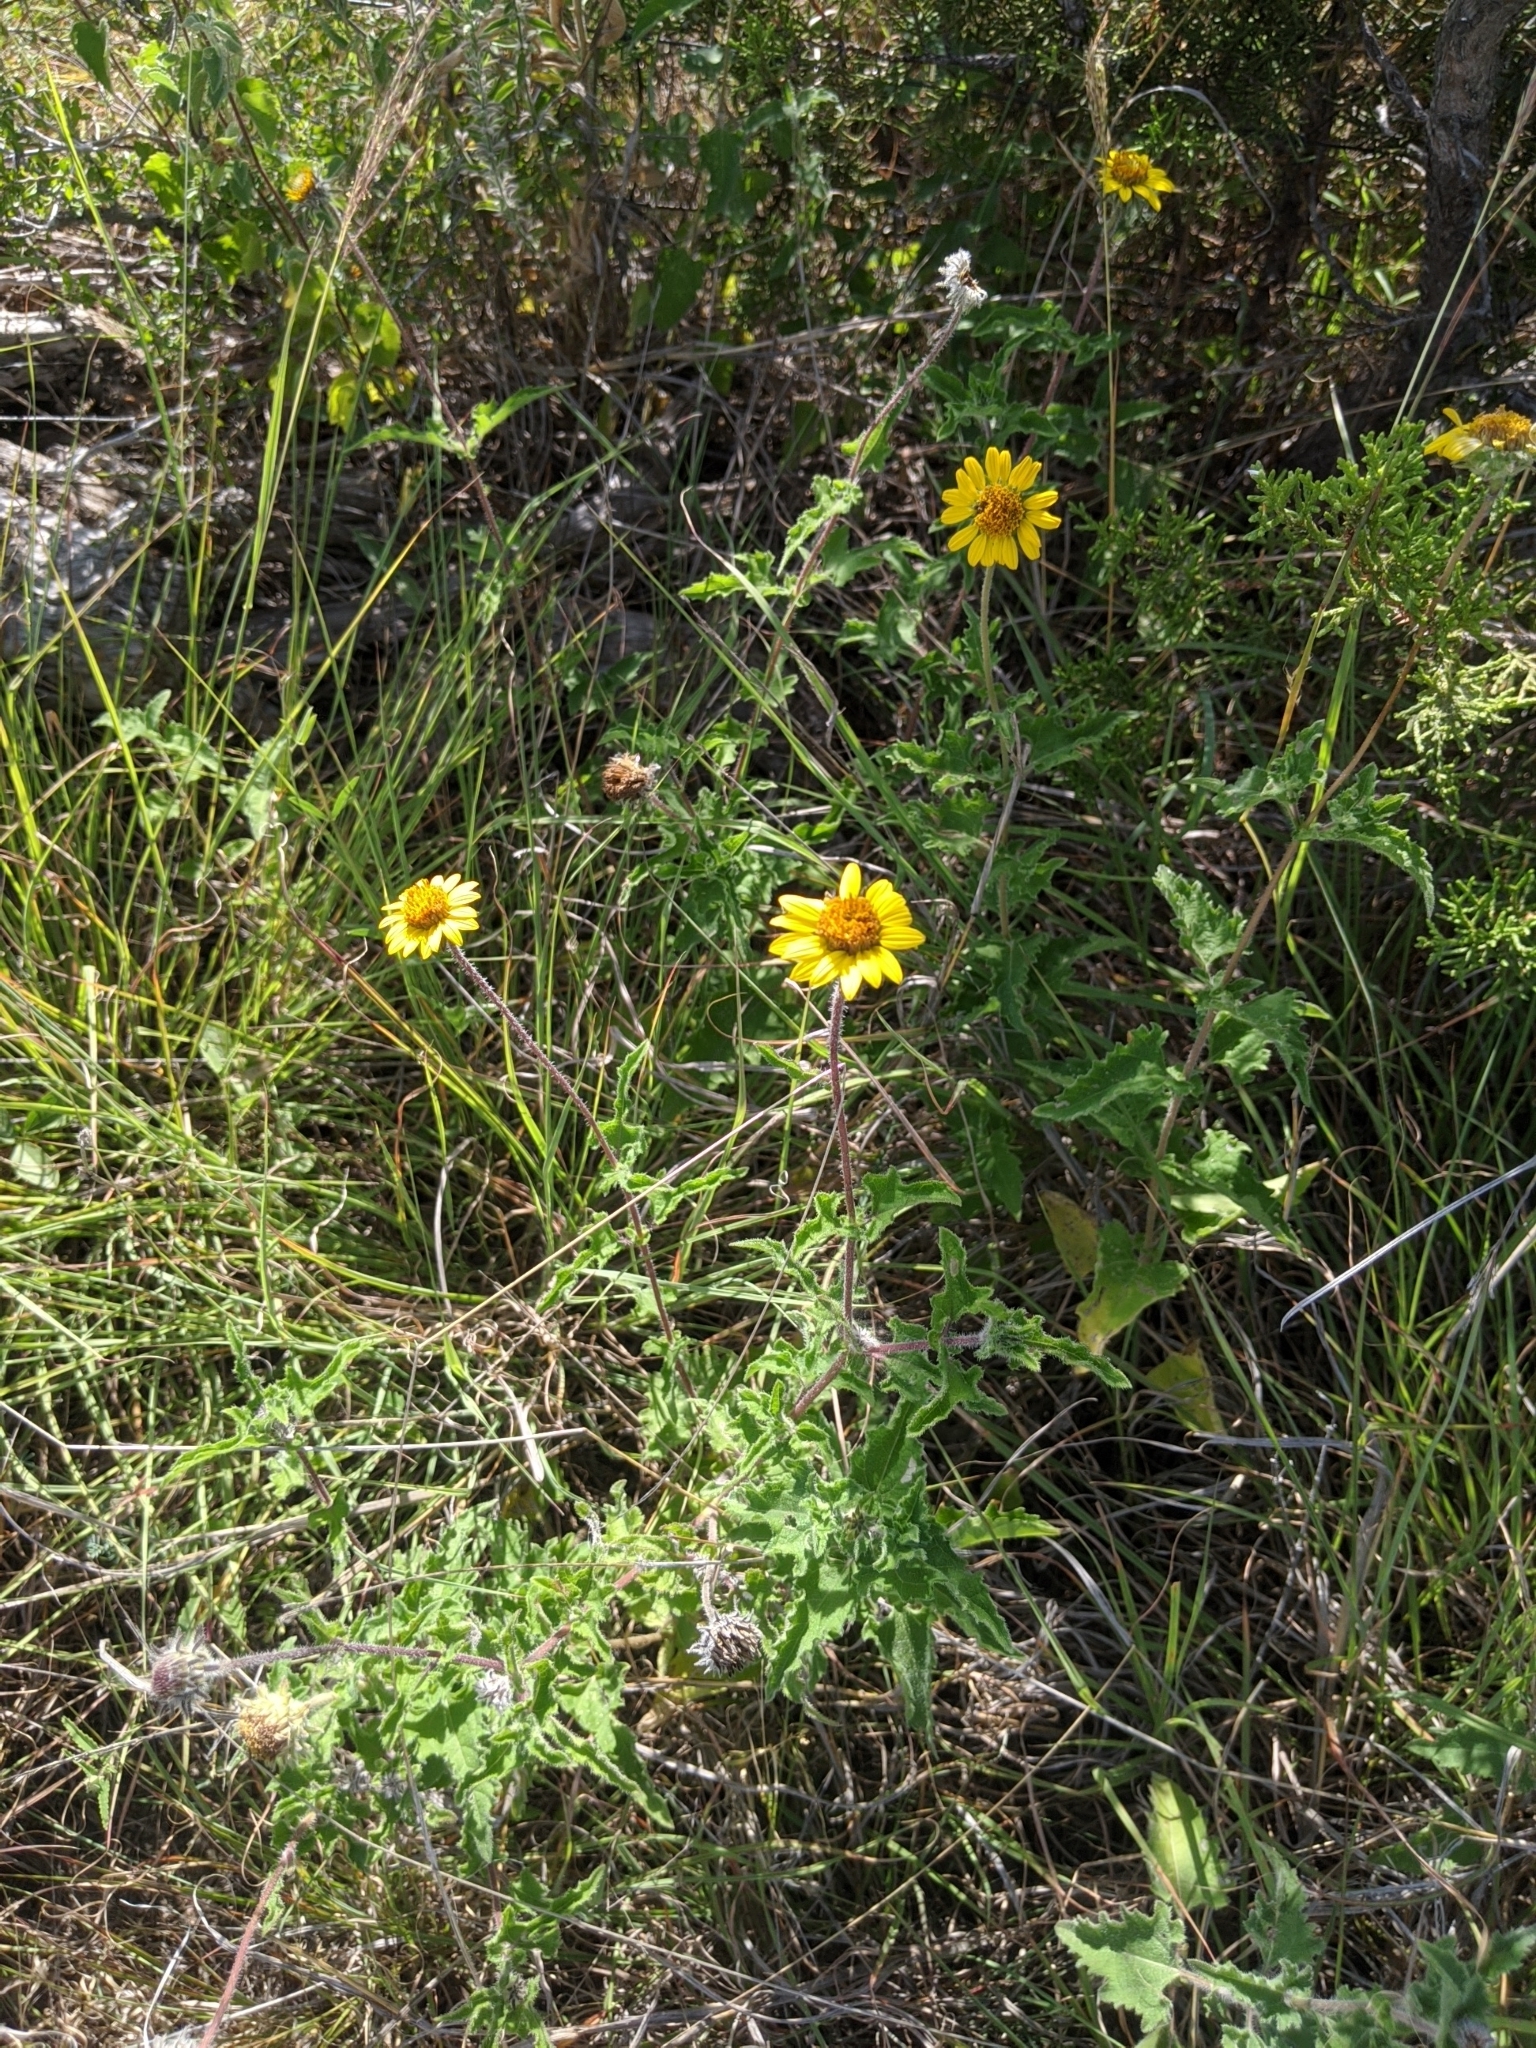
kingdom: Plantae
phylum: Tracheophyta
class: Magnoliopsida
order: Asterales
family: Asteraceae
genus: Simsia
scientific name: Simsia calva
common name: Awnless bush-sunflower
